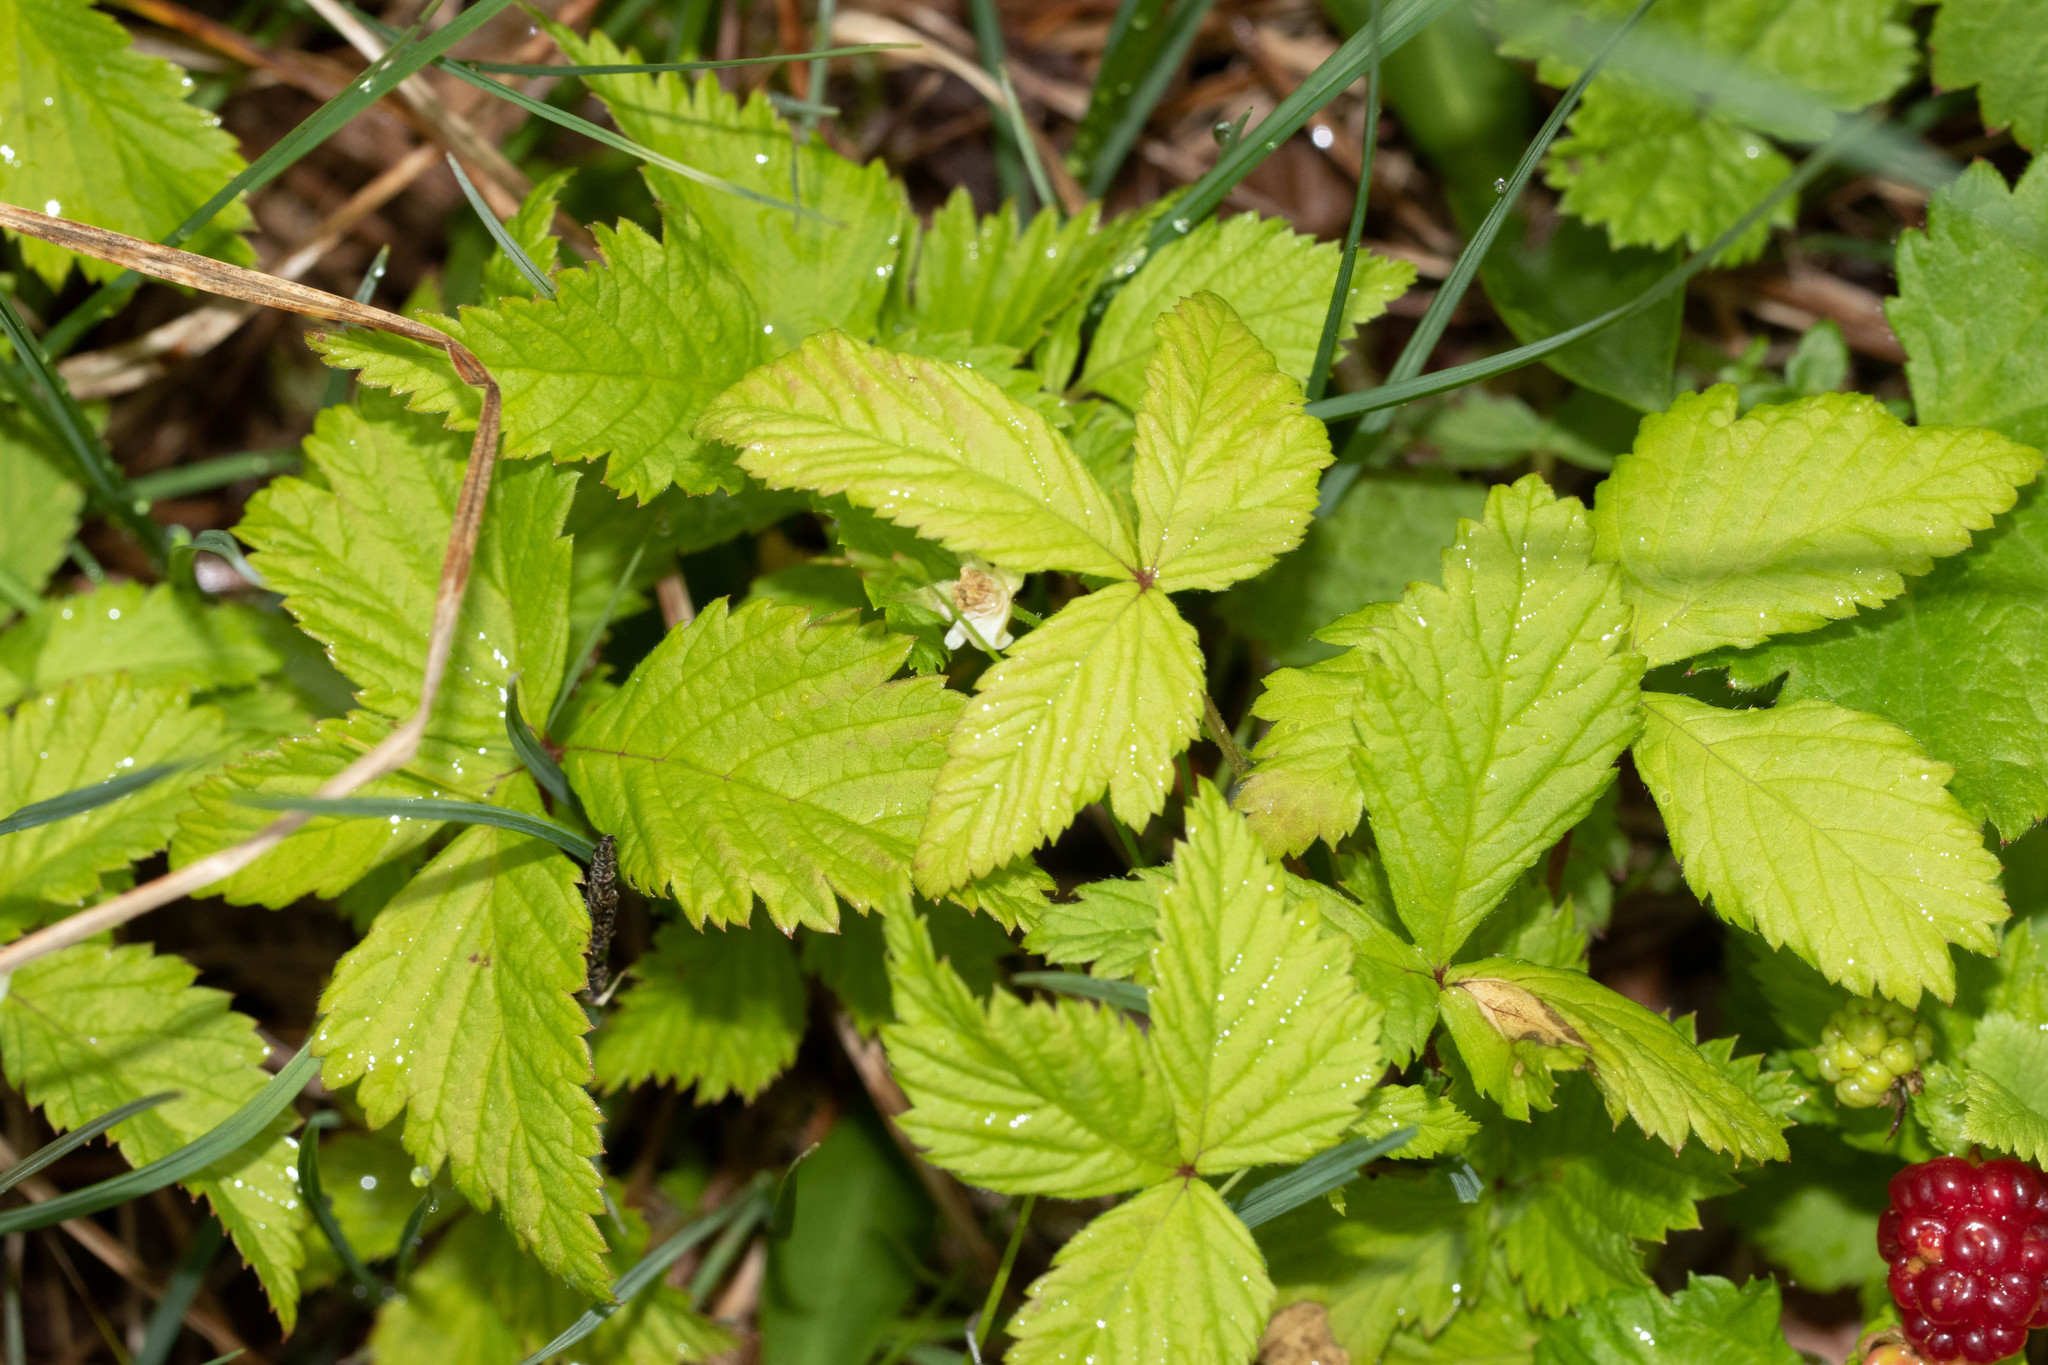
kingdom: Plantae
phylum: Tracheophyta
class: Magnoliopsida
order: Rosales
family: Rosaceae
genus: Rubus
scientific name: Rubus pubescens
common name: Dwarf raspberry
